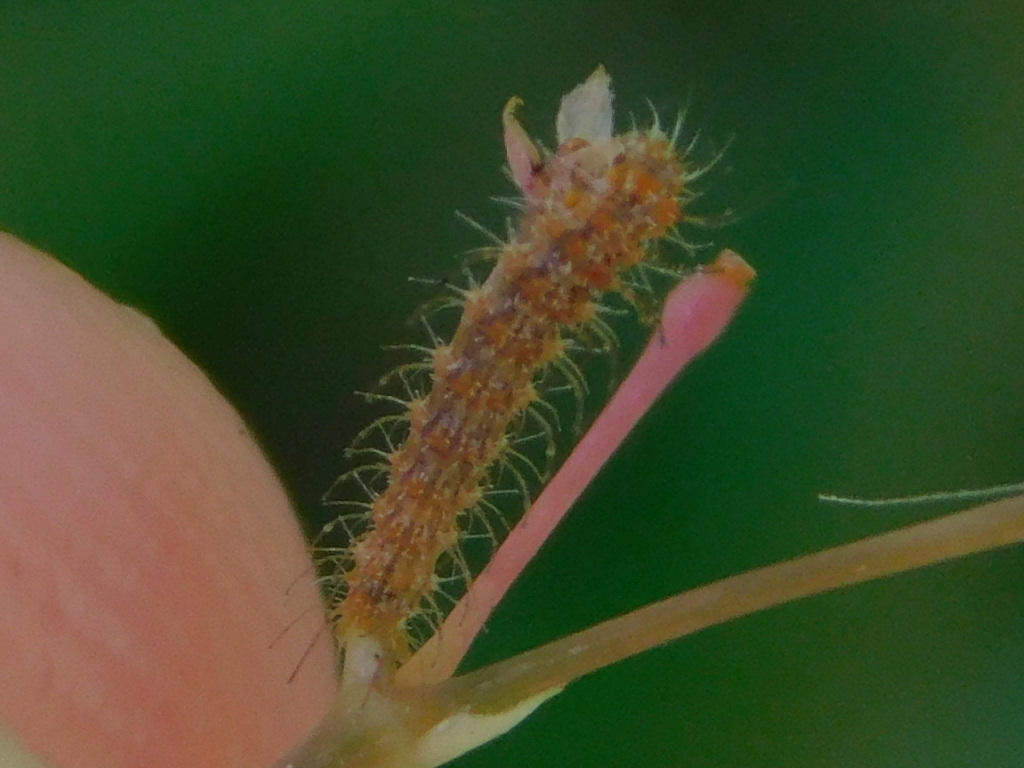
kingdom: Animalia
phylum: Arthropoda
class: Insecta
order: Lepidoptera
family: Pterophoridae
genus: Megalorhipida
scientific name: Megalorhipida leucodactylus
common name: Plume moth
